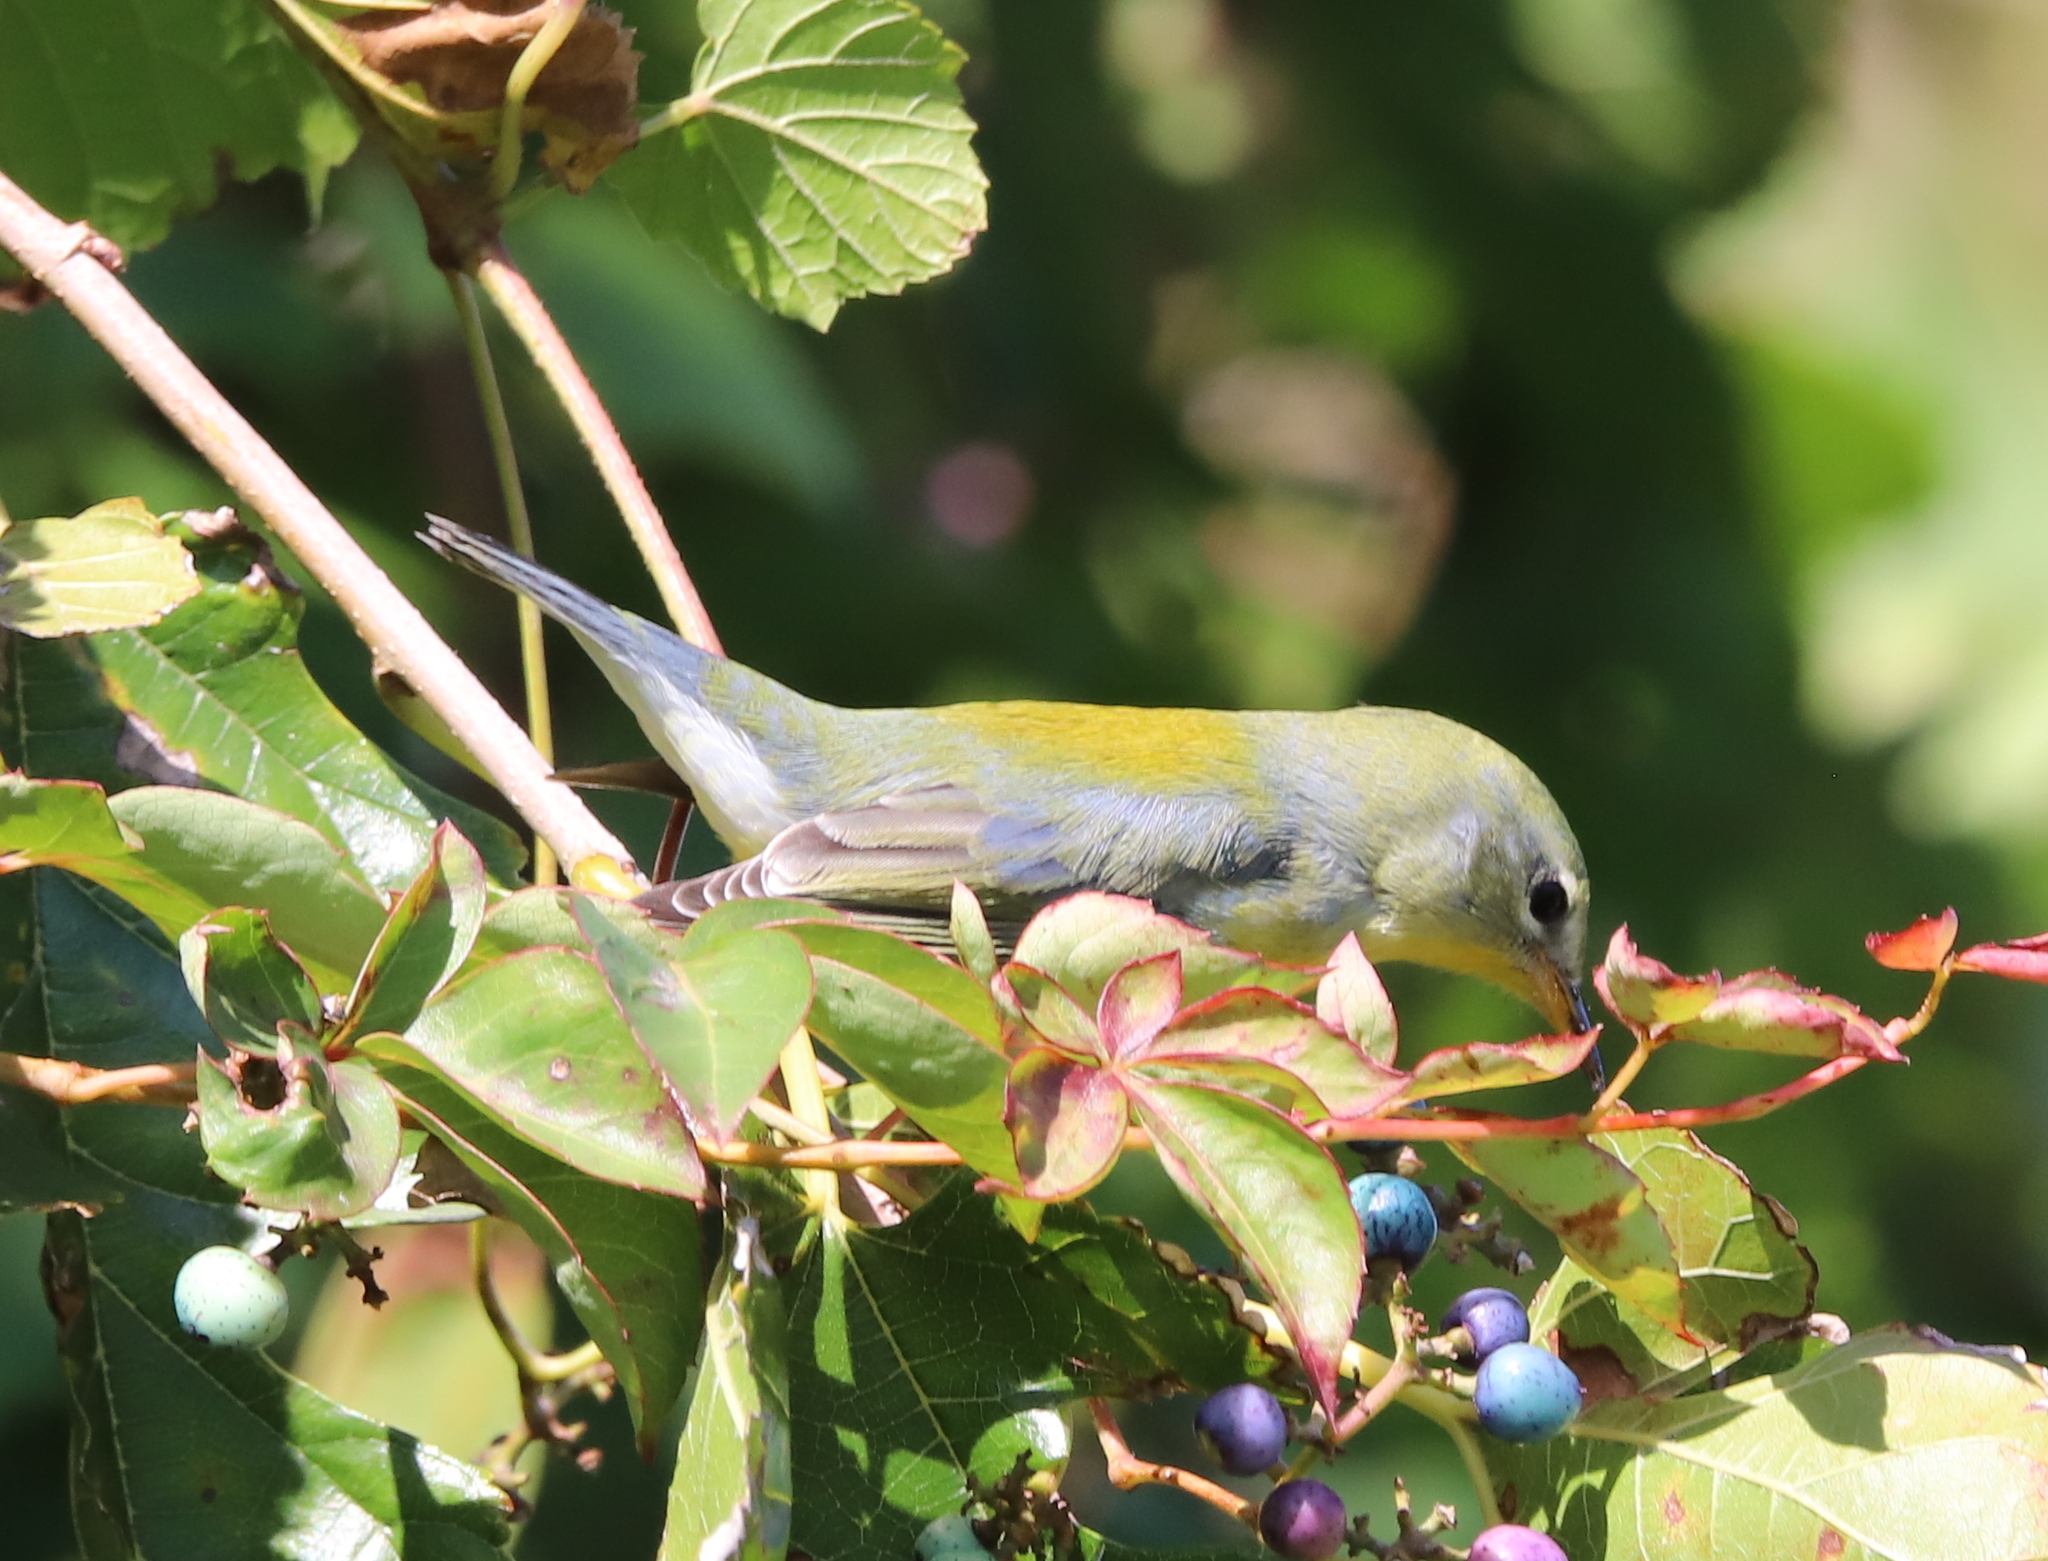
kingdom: Animalia
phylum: Chordata
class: Aves
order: Passeriformes
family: Parulidae
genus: Setophaga
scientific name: Setophaga americana
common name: Northern parula
